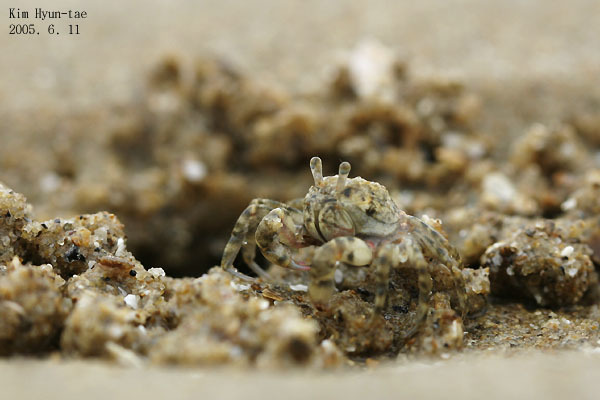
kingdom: Animalia
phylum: Arthropoda
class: Malacostraca
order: Decapoda
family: Dotillidae
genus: Scopimera
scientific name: Scopimera globosa
